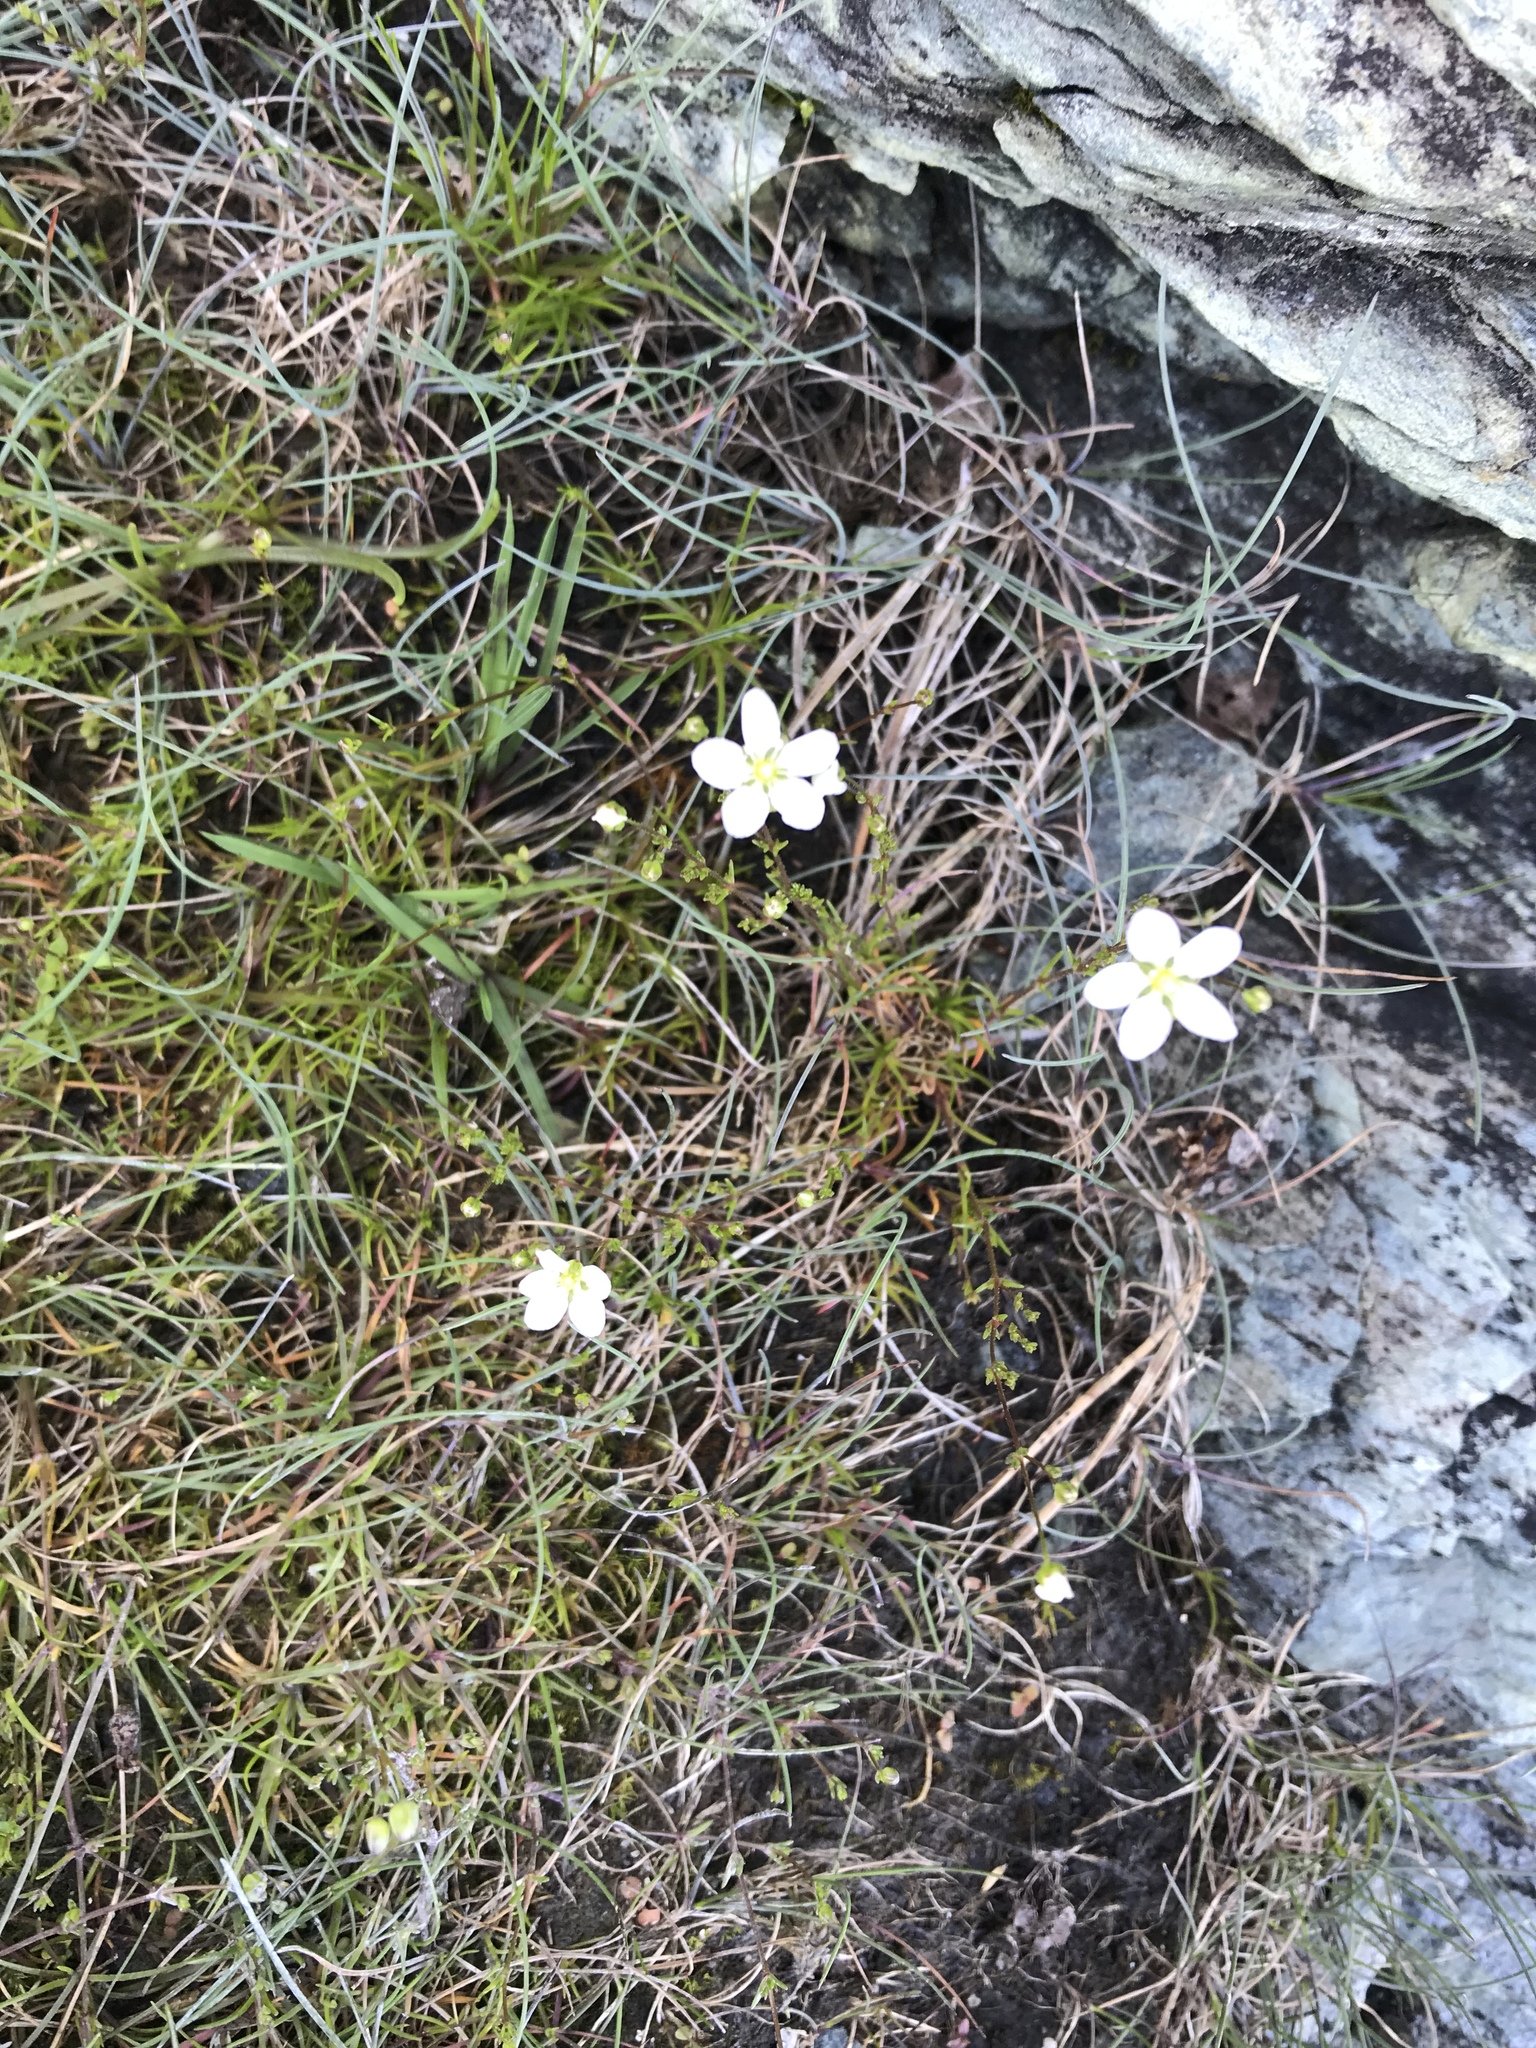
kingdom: Plantae
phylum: Tracheophyta
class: Magnoliopsida
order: Caryophyllales
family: Caryophyllaceae
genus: Sagina
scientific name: Sagina nodosa
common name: Knotted pearlwort
